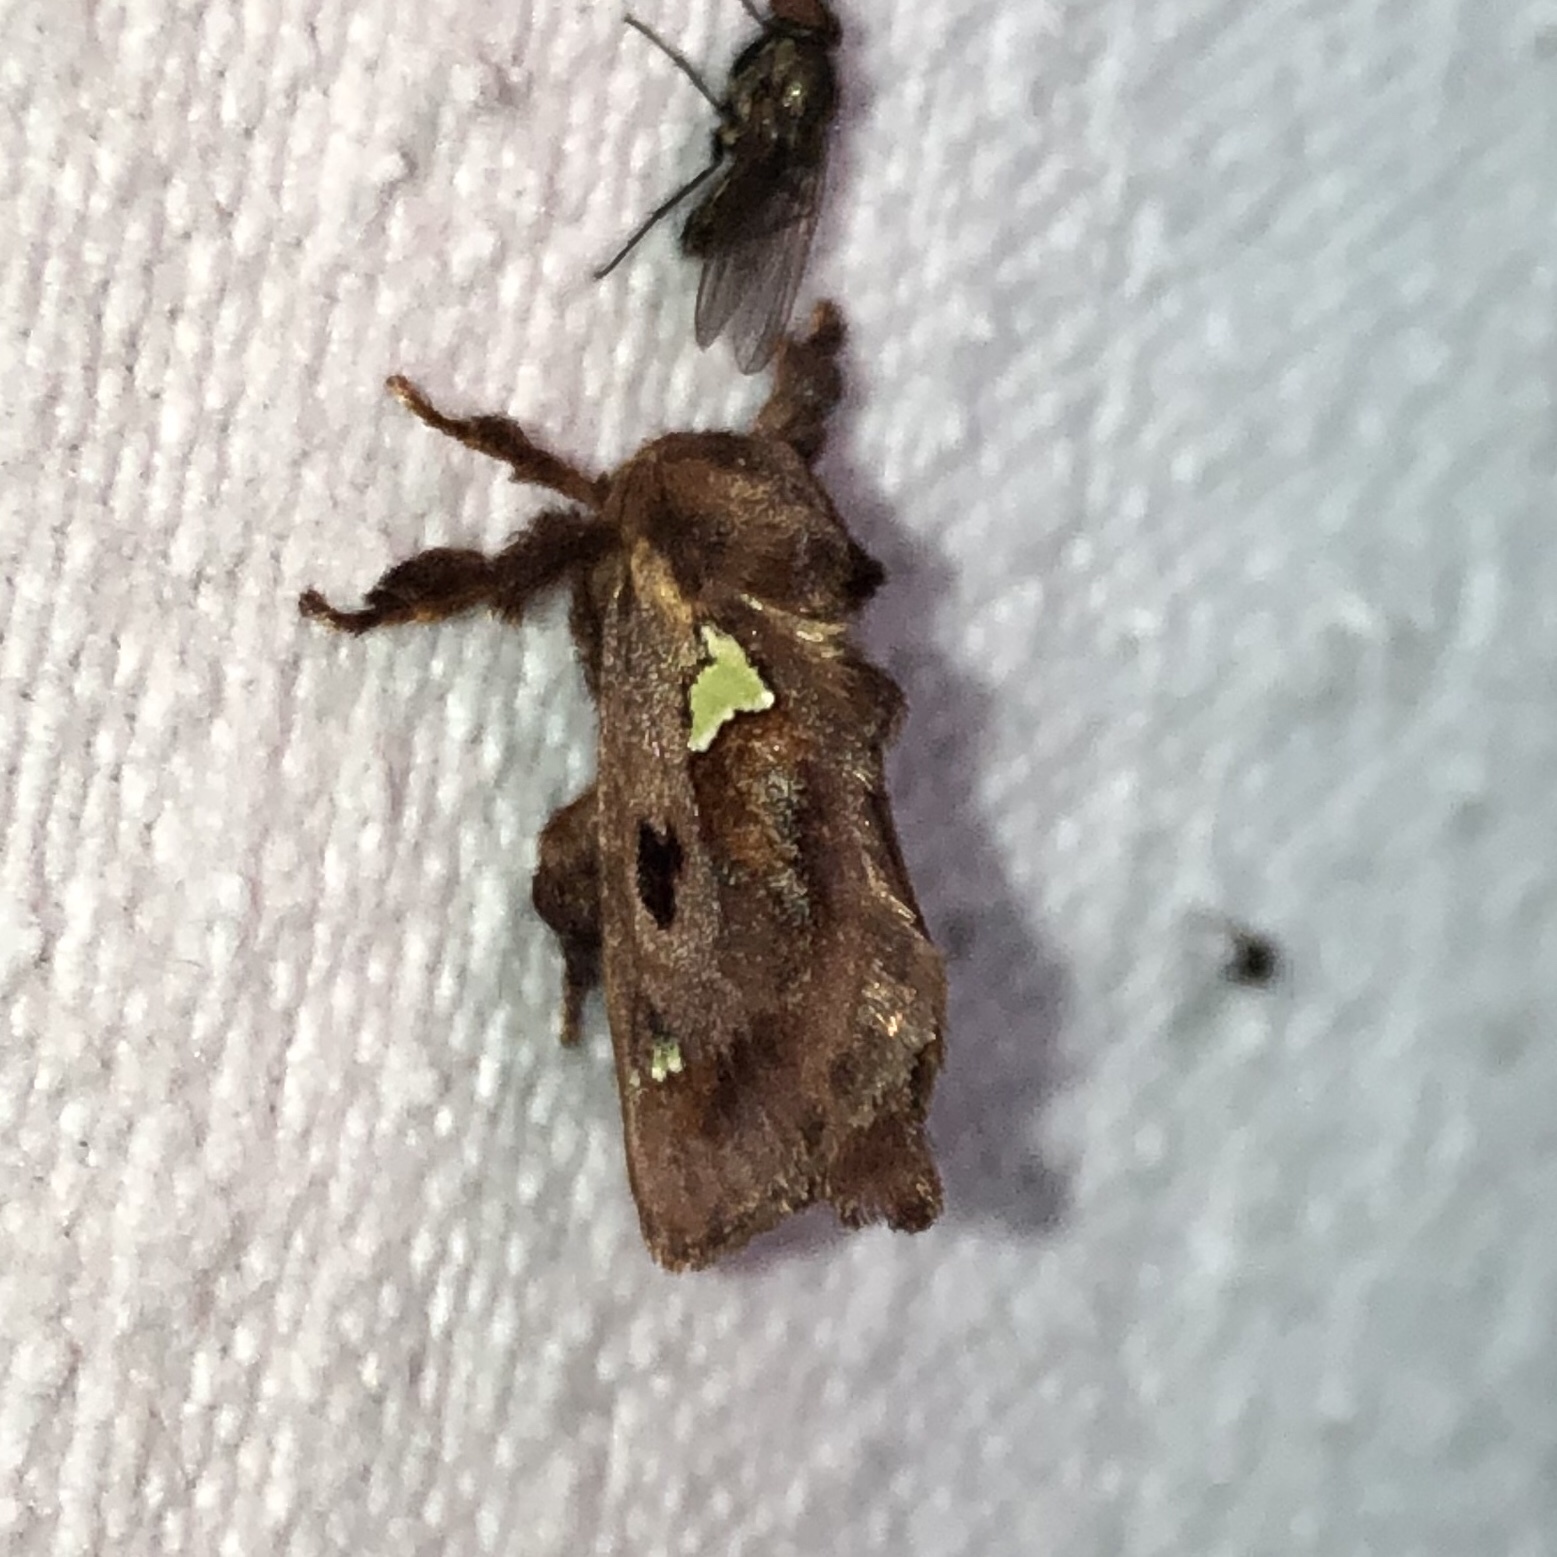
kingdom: Animalia
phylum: Arthropoda
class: Insecta
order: Lepidoptera
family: Limacodidae
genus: Euclea
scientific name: Euclea delphinii
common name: Spiny oak-slug moth
